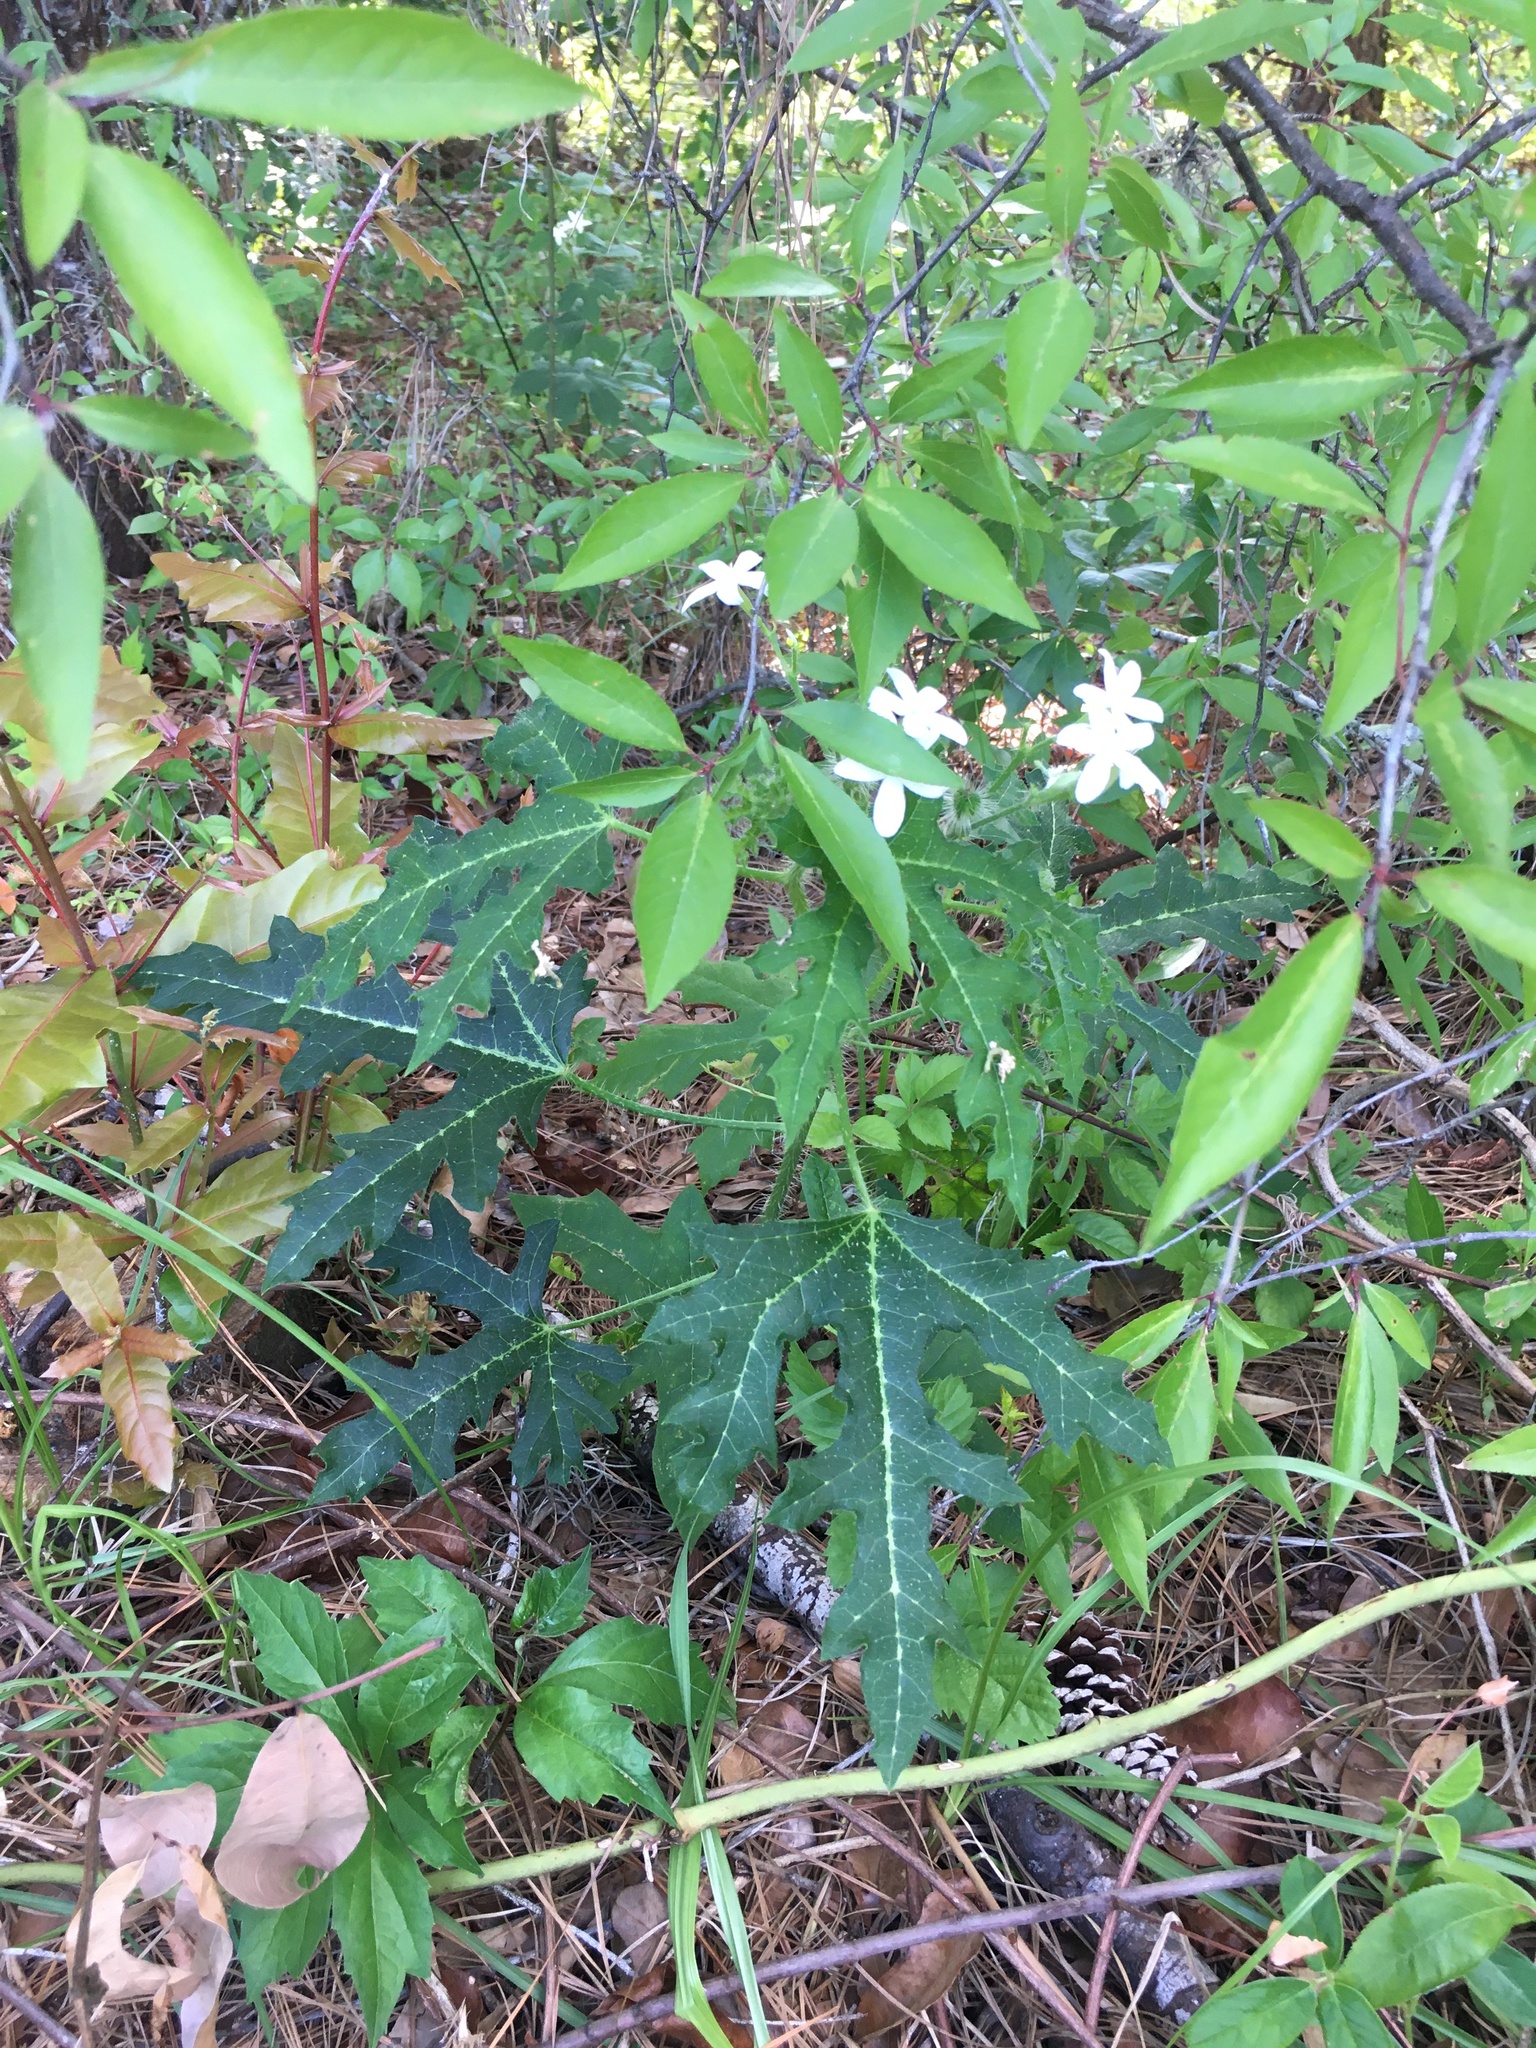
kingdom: Plantae
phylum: Tracheophyta
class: Magnoliopsida
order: Malpighiales
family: Euphorbiaceae
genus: Cnidoscolus
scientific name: Cnidoscolus stimulosus
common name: Bull-nettle
